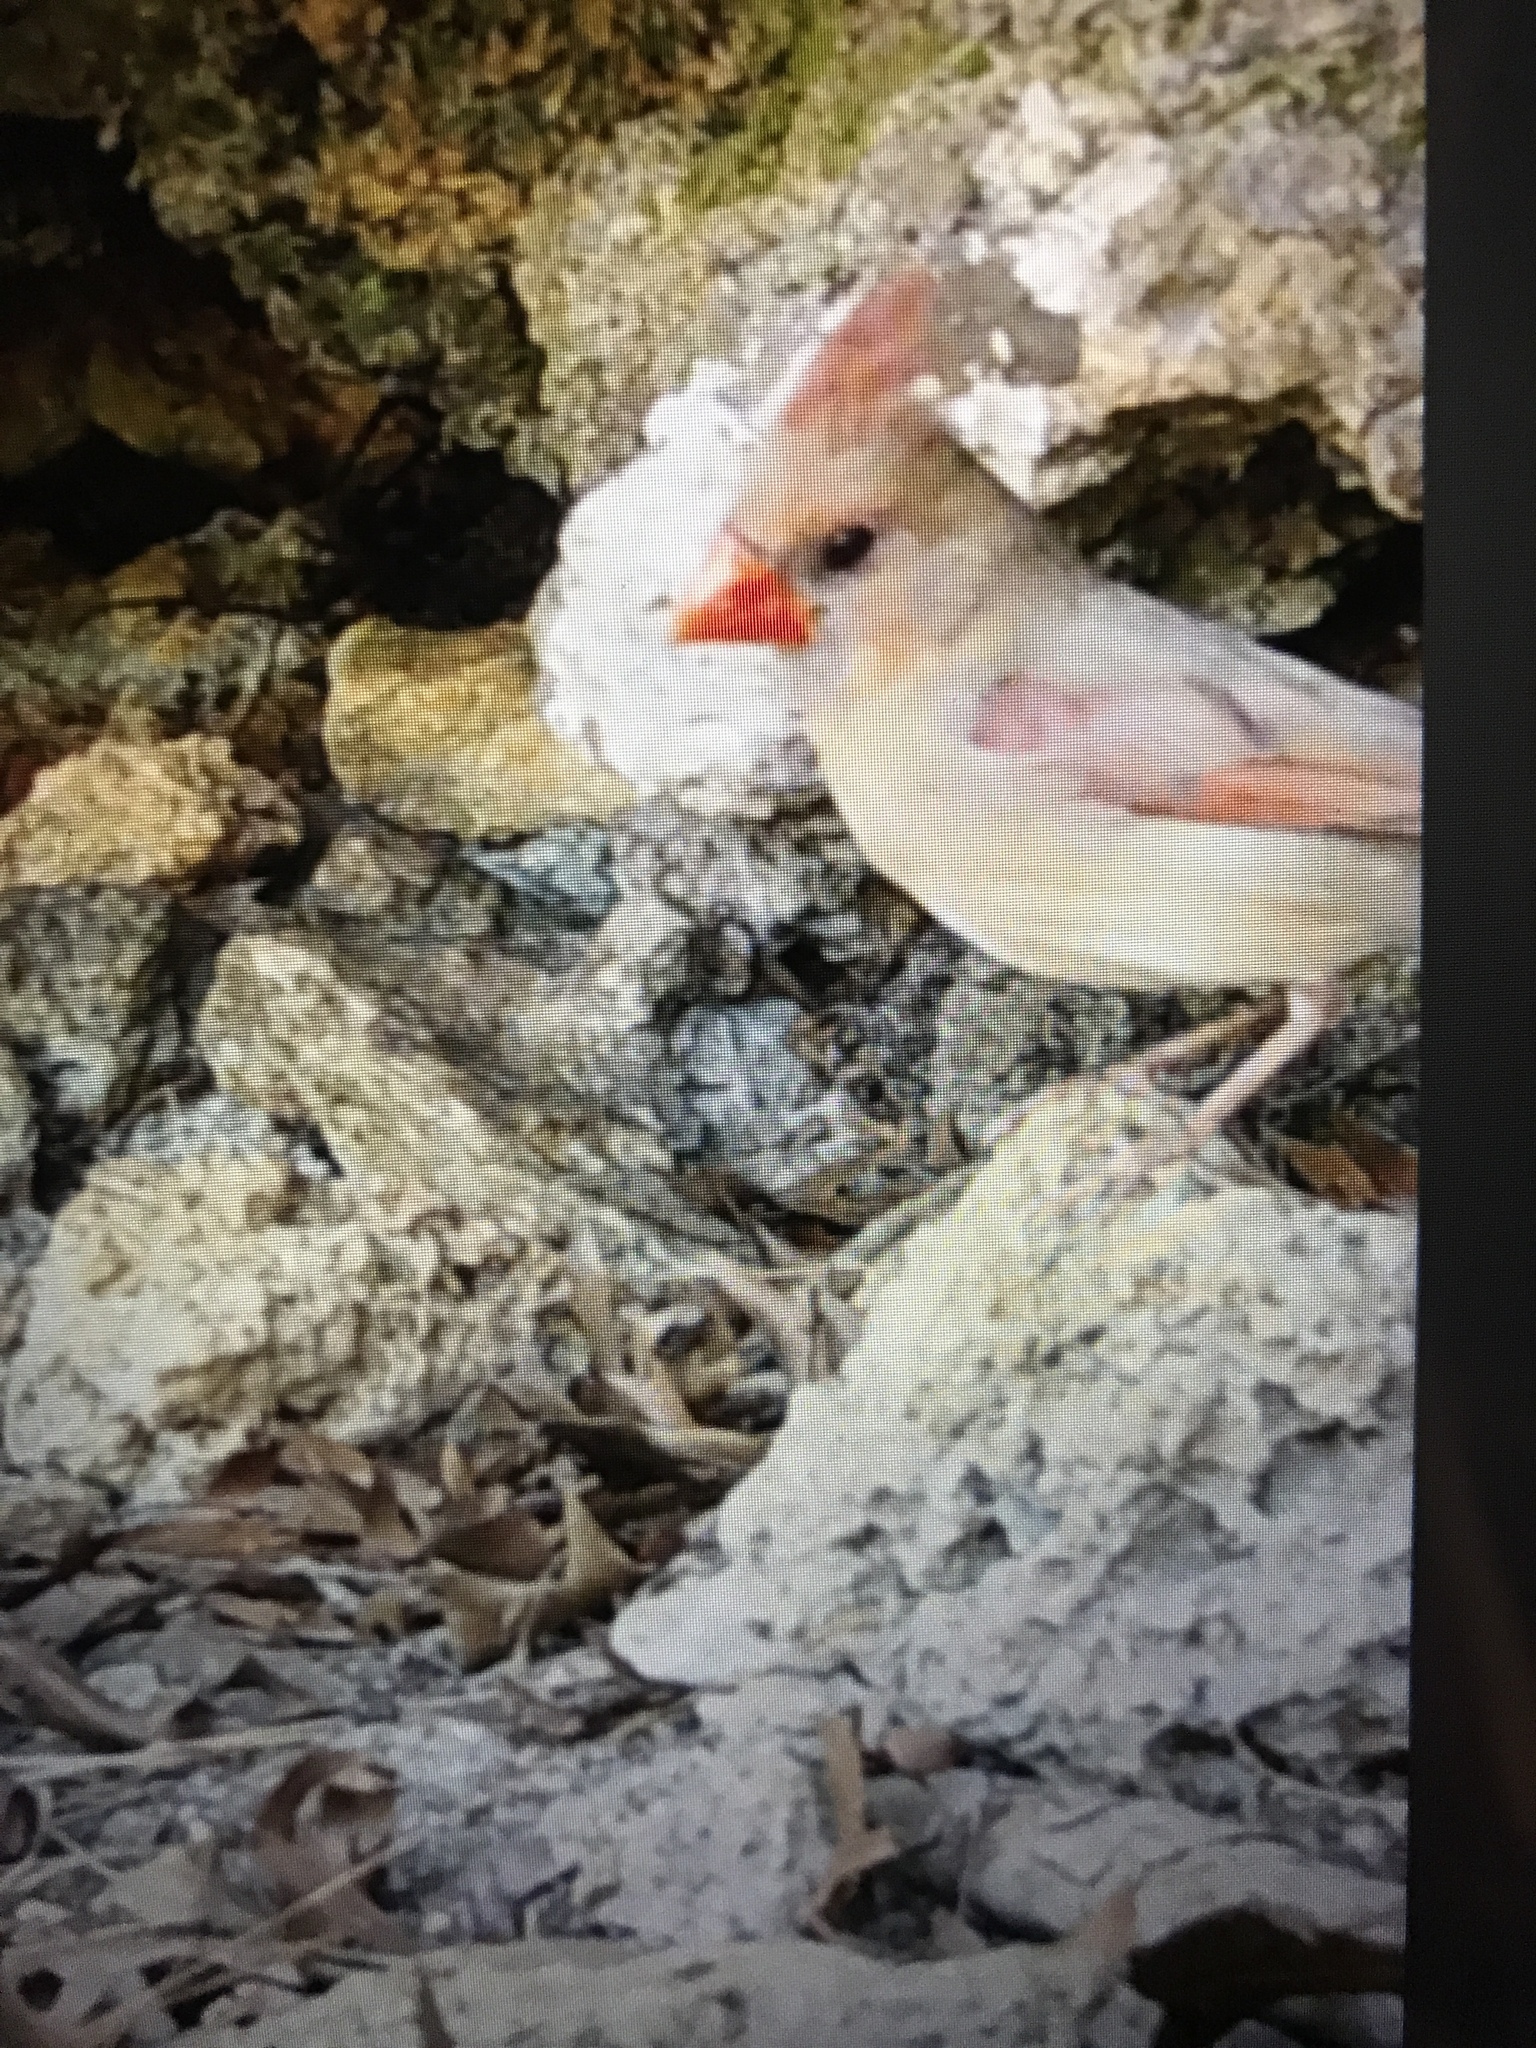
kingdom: Animalia
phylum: Chordata
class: Aves
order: Passeriformes
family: Cardinalidae
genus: Cardinalis
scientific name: Cardinalis cardinalis
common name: Northern cardinal
